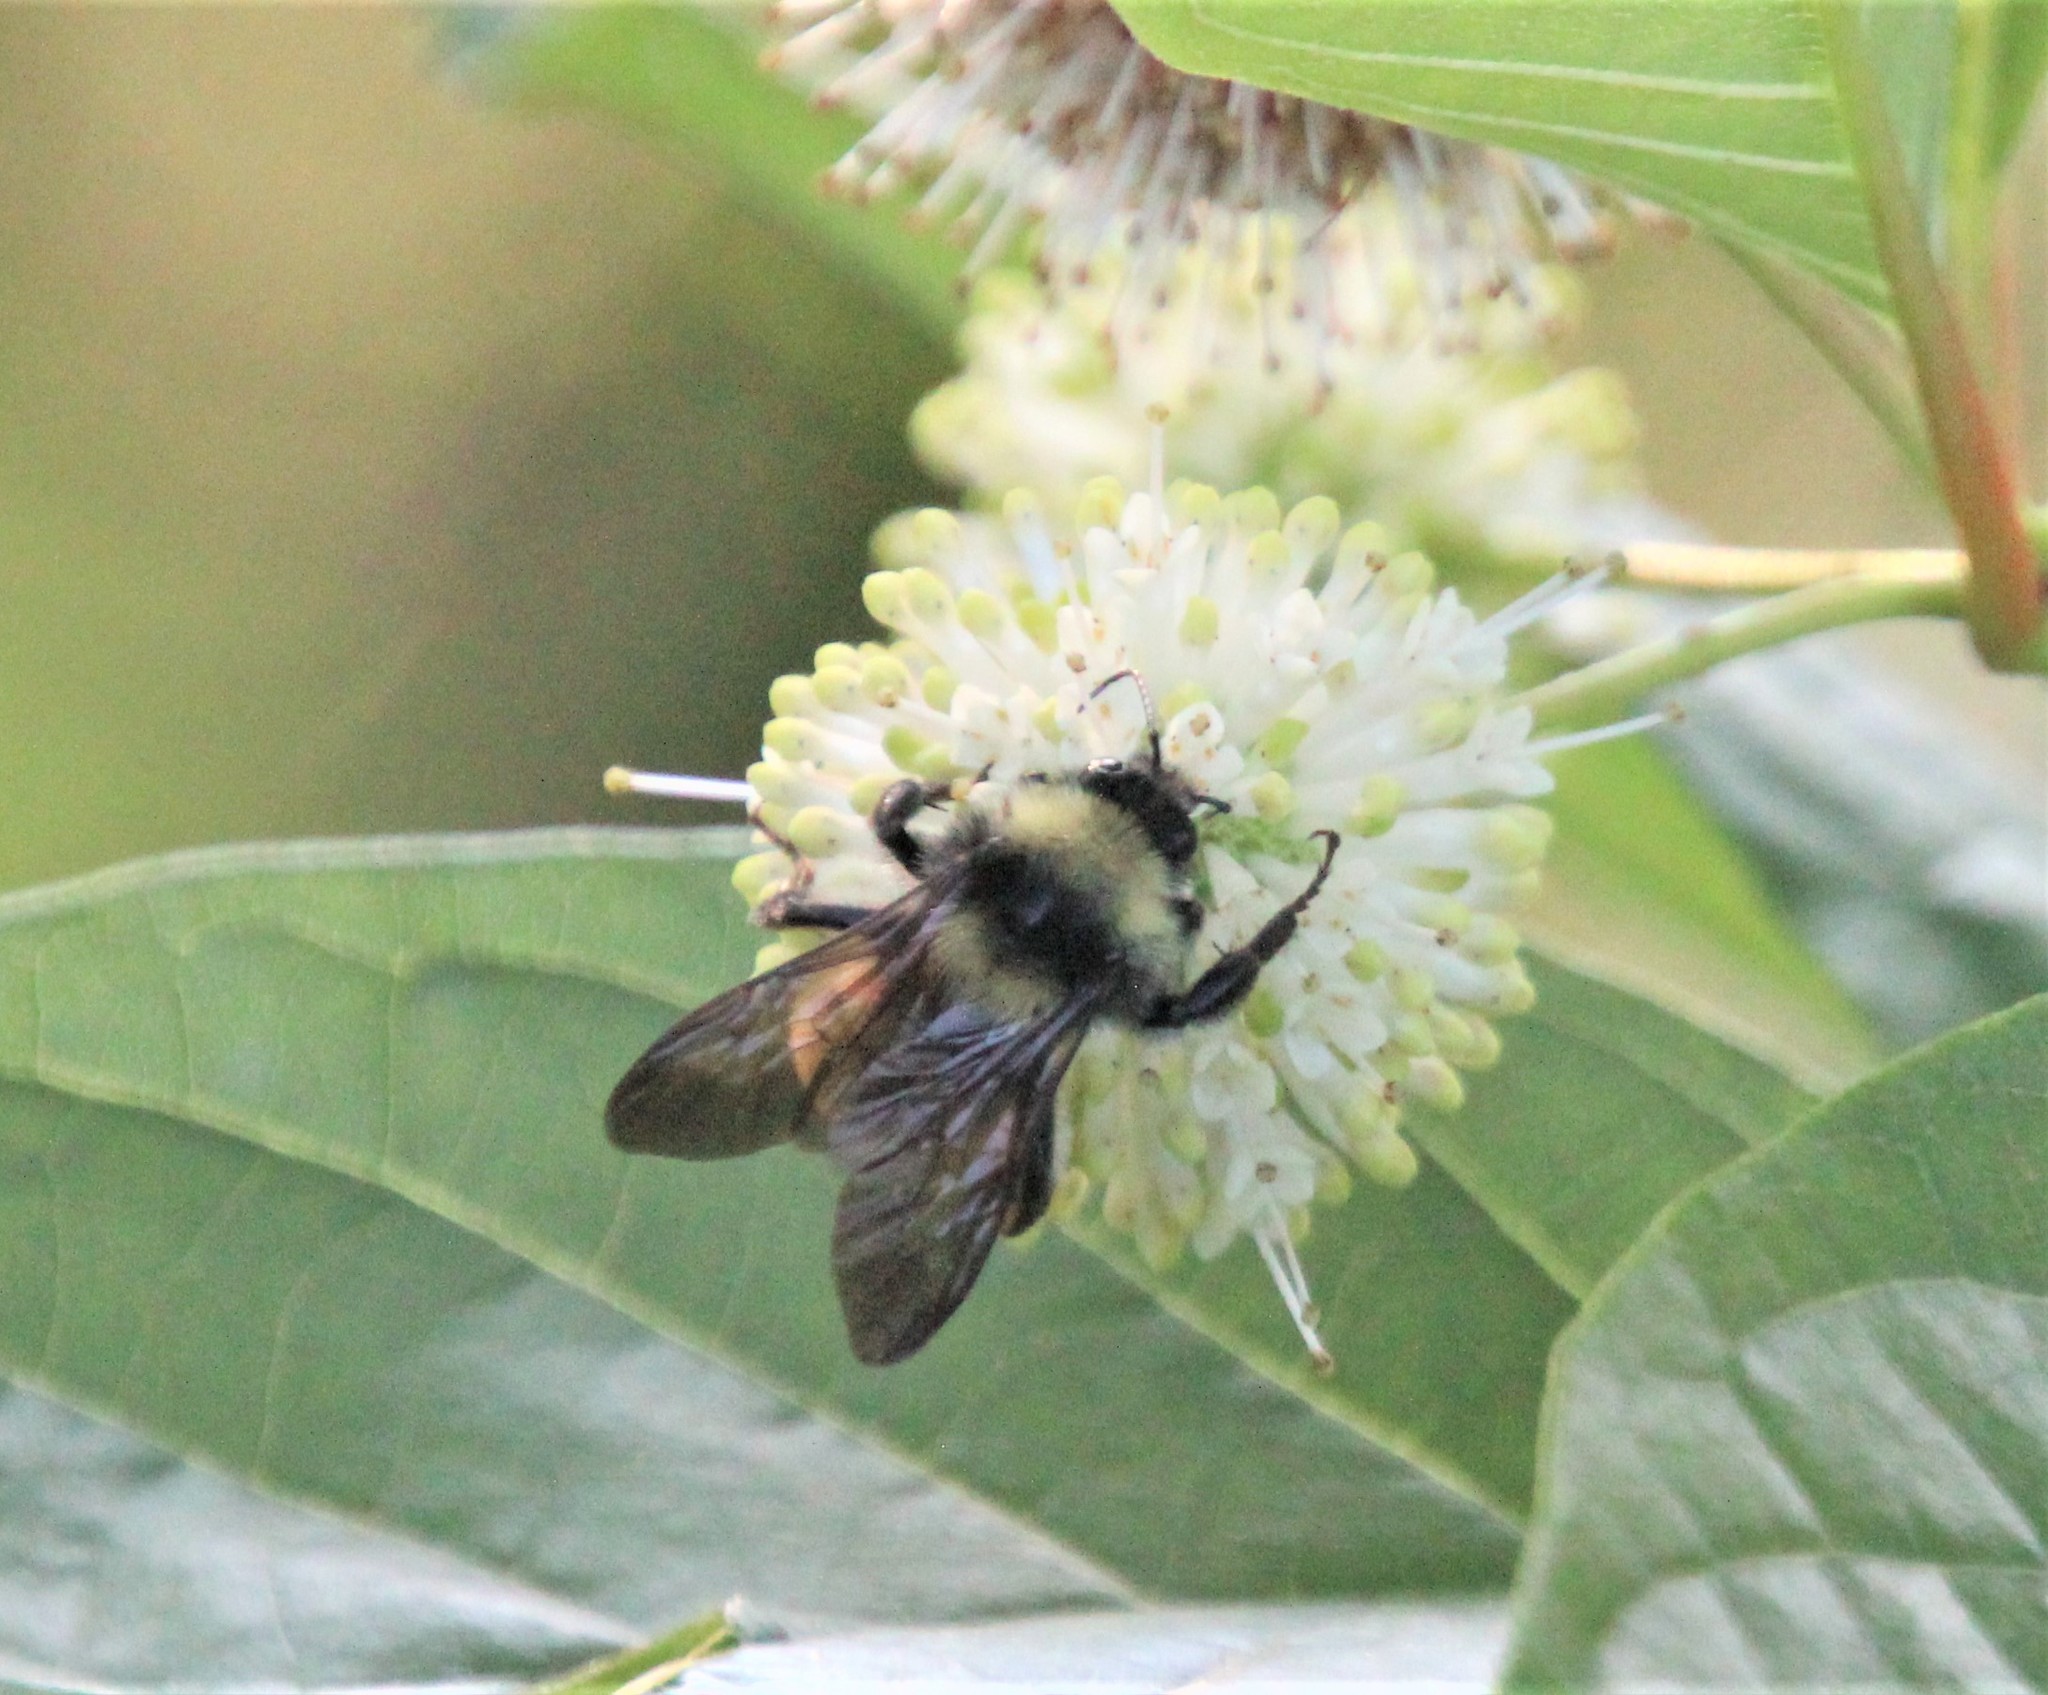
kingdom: Animalia
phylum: Arthropoda
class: Insecta
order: Hymenoptera
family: Apidae
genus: Bombus
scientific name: Bombus pensylvanicus
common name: Bumble bee
